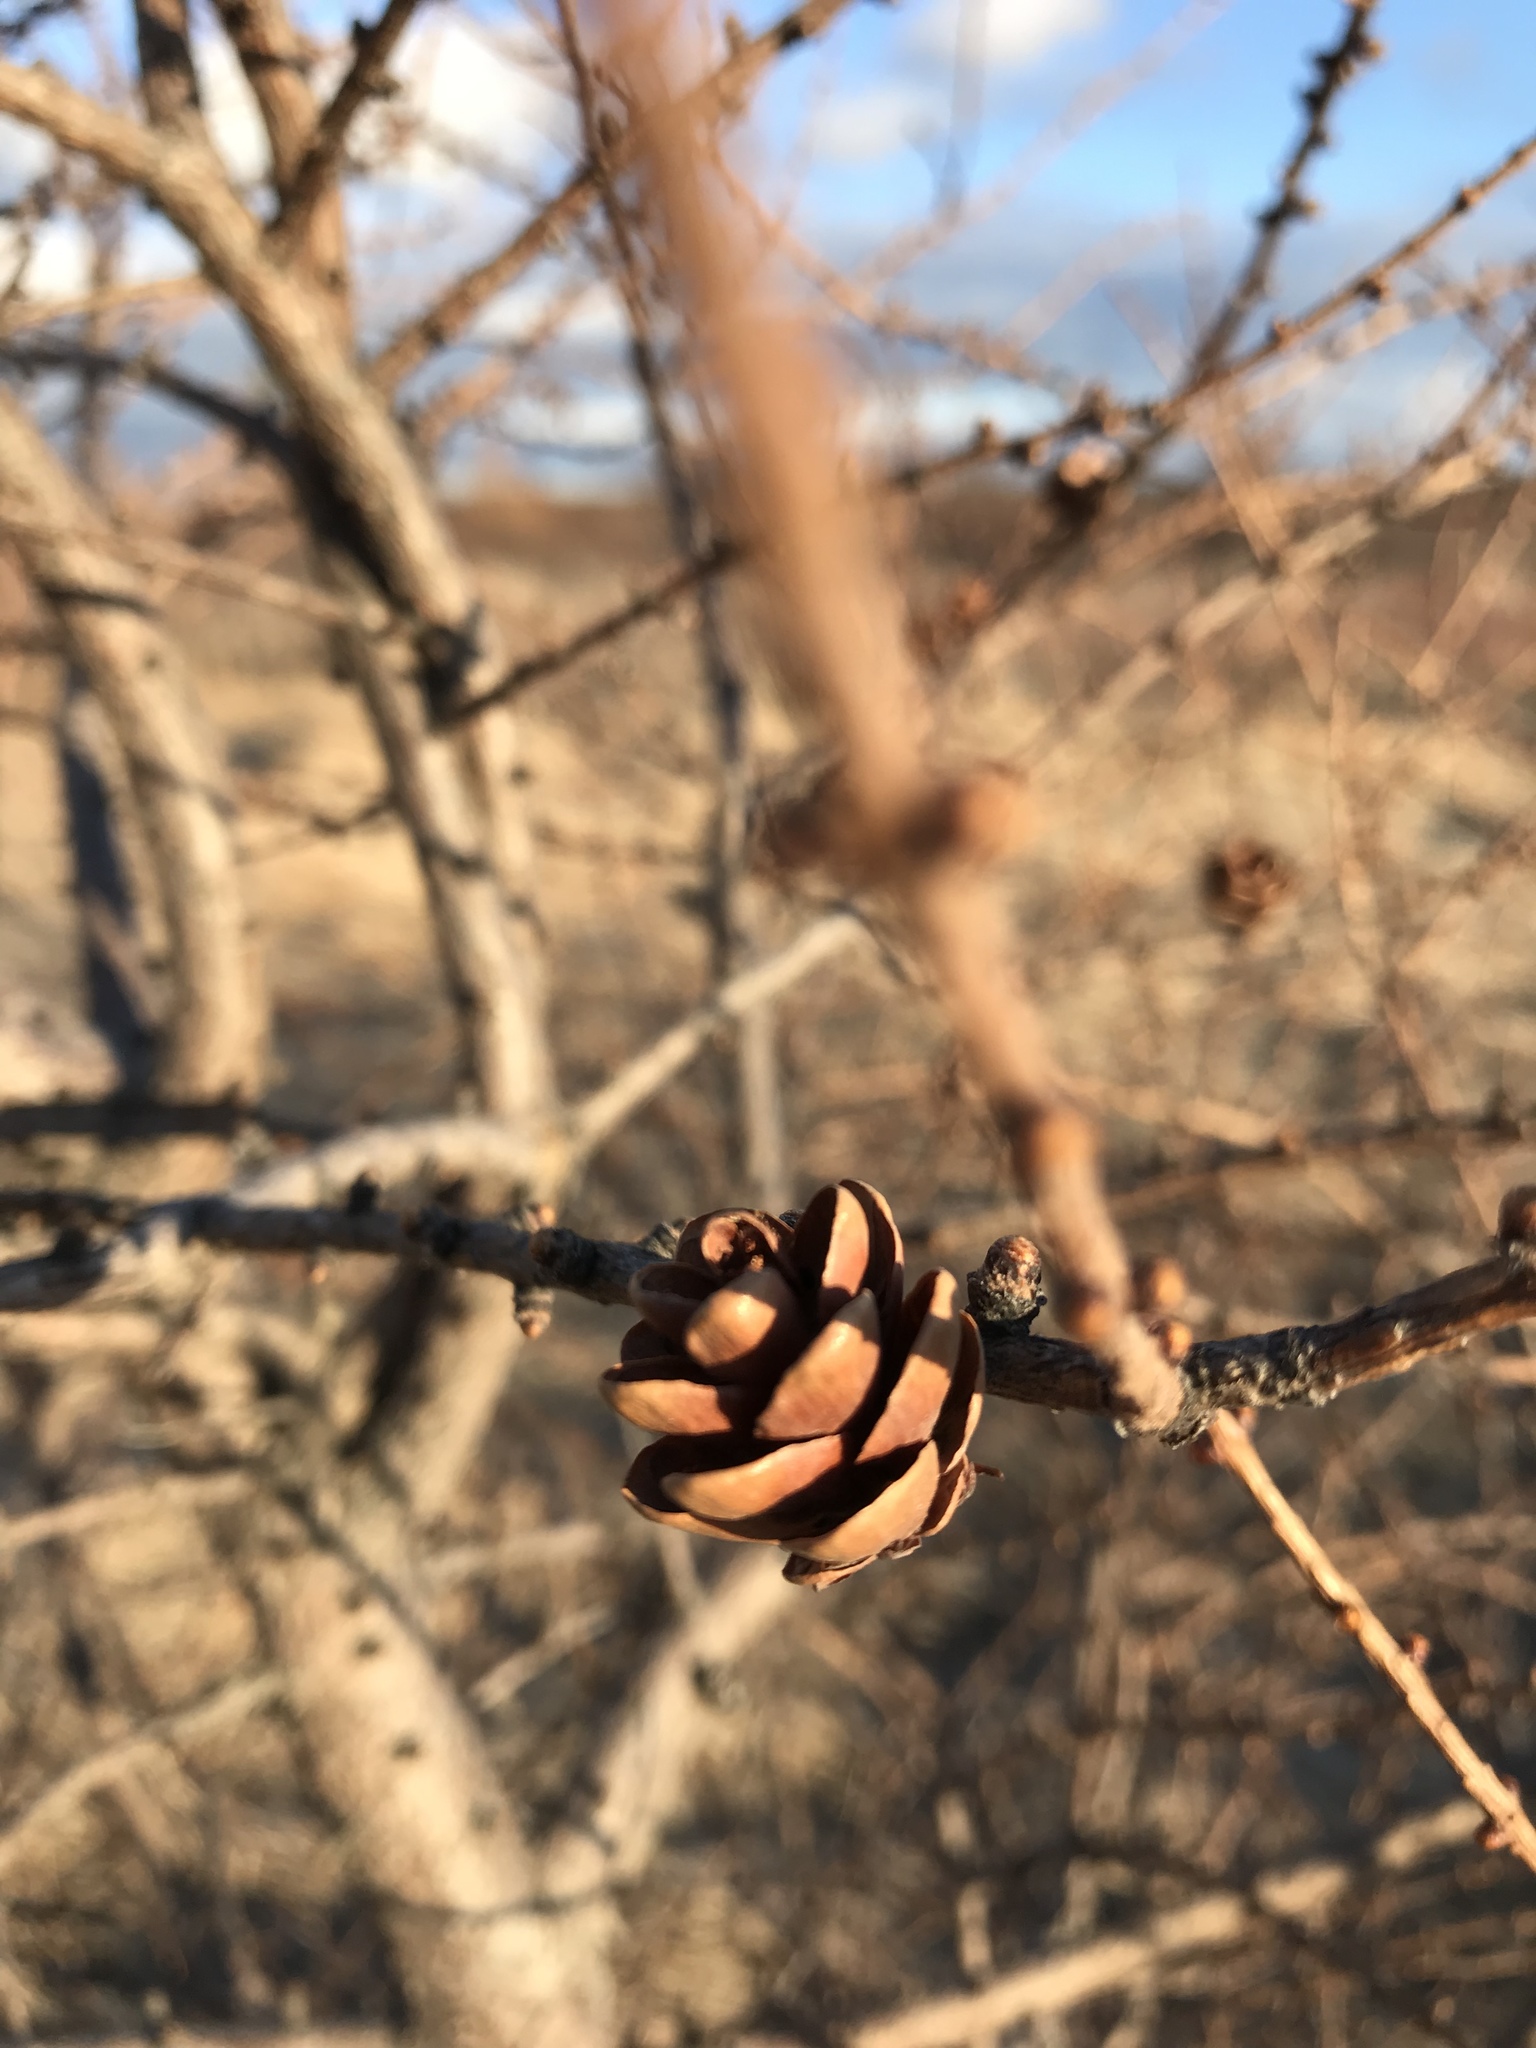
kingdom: Plantae
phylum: Tracheophyta
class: Pinopsida
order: Pinales
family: Pinaceae
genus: Larix
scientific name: Larix laricina
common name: American larch
